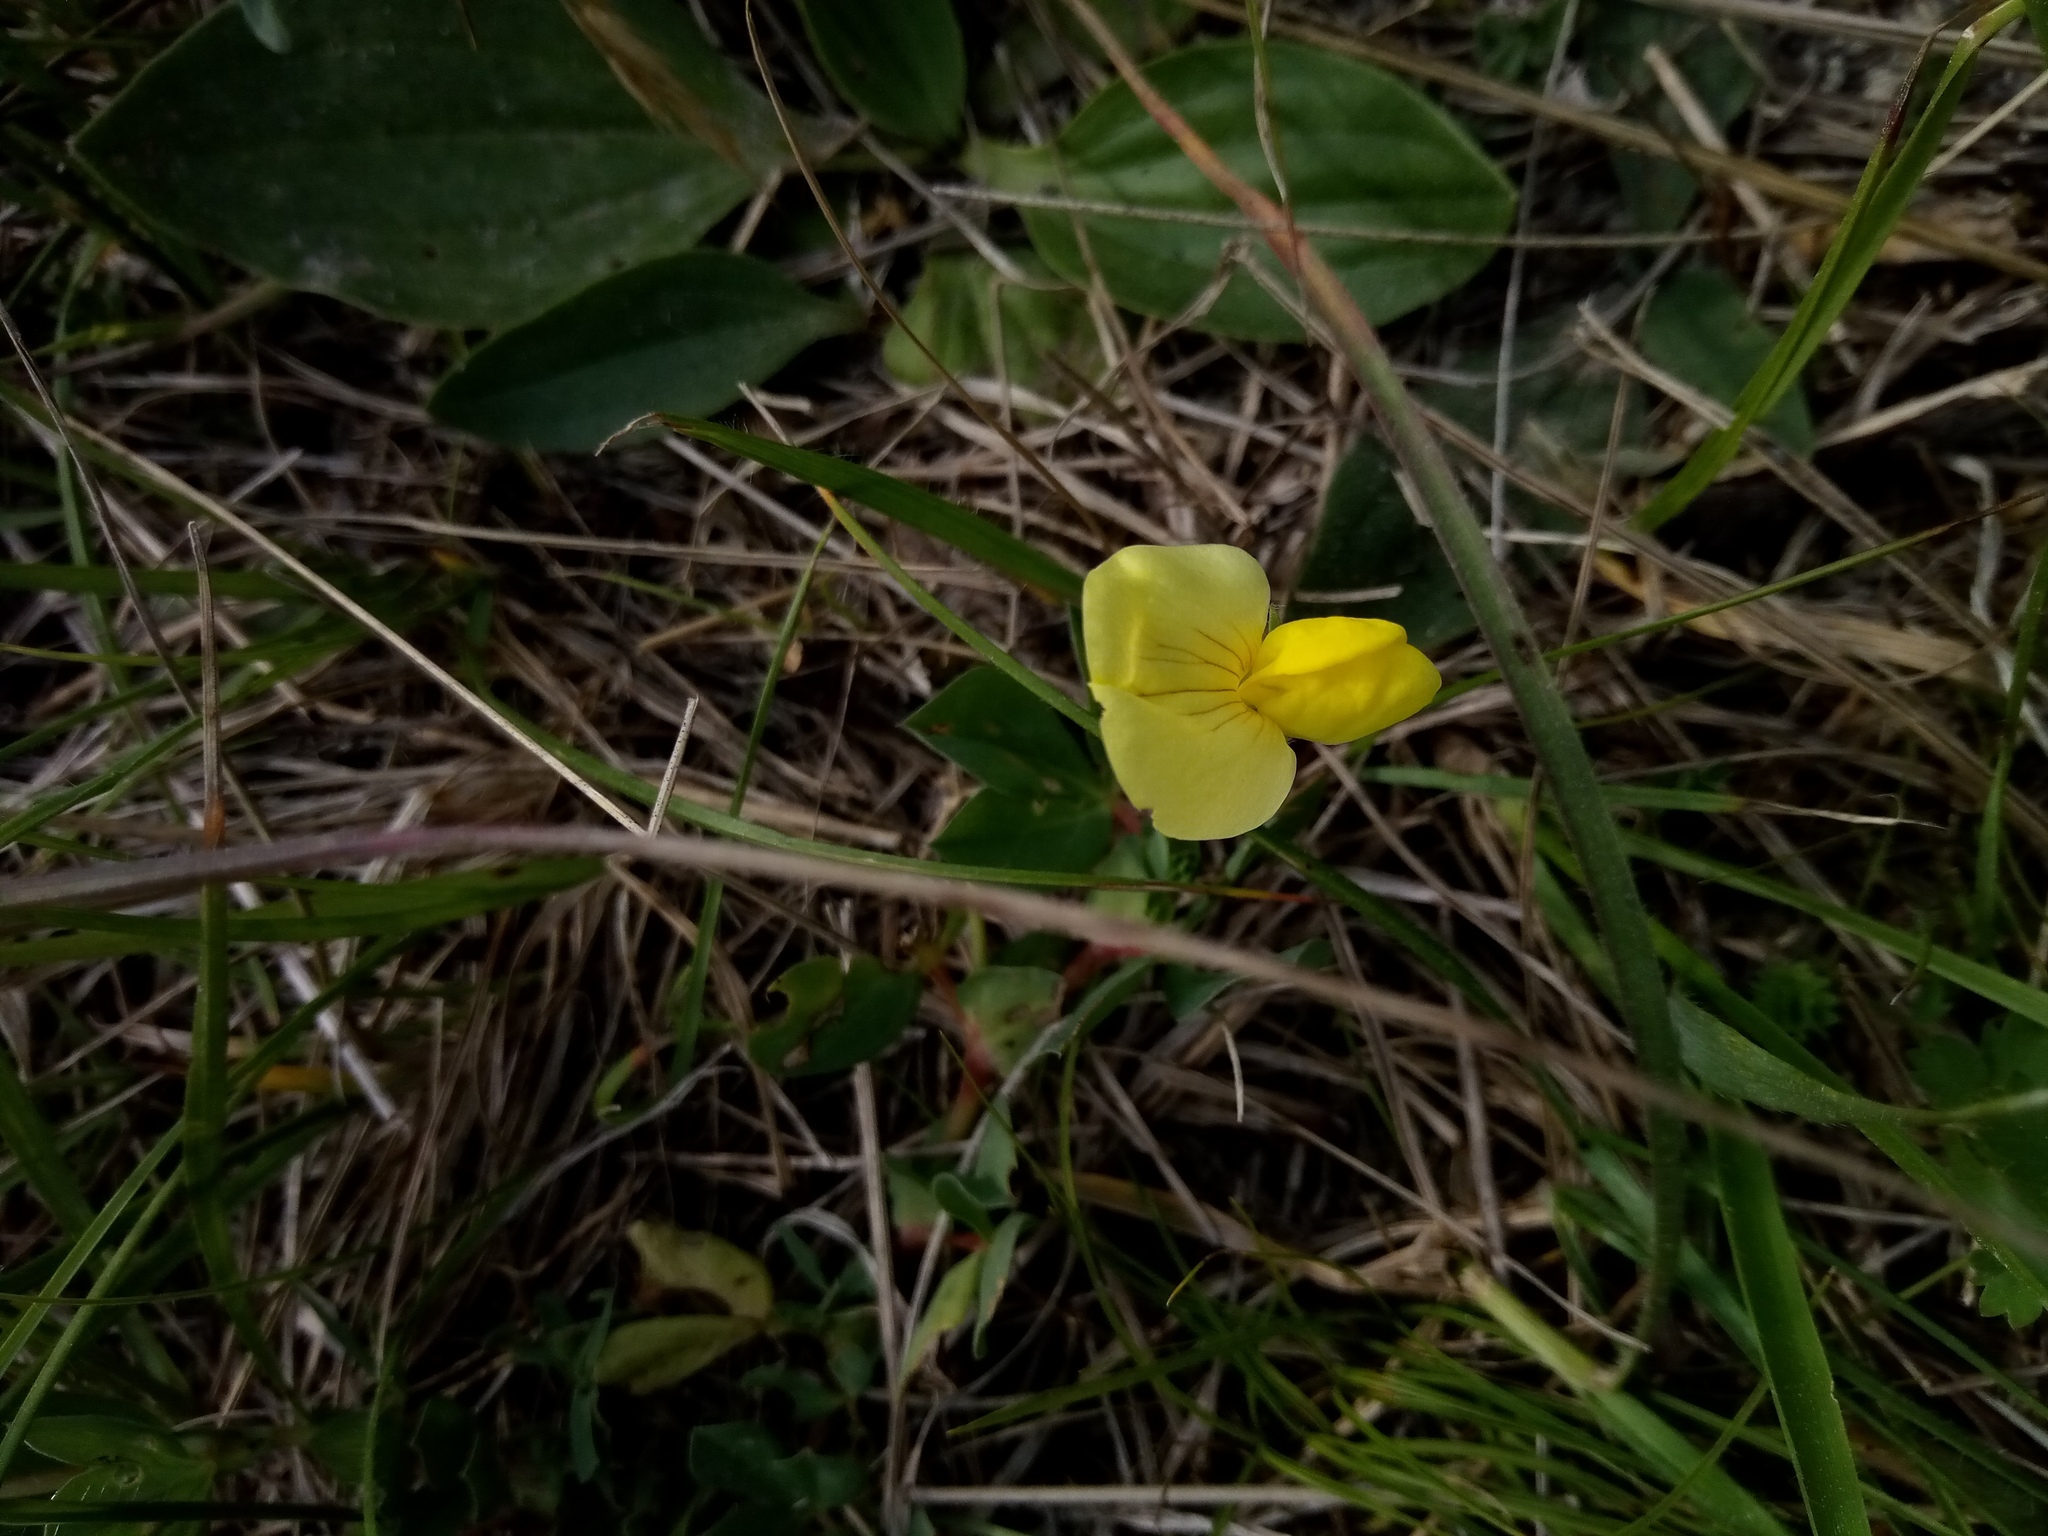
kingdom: Plantae
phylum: Tracheophyta
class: Magnoliopsida
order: Fabales
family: Fabaceae
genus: Lotus
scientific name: Lotus maritimus
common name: Dragon's-teeth
